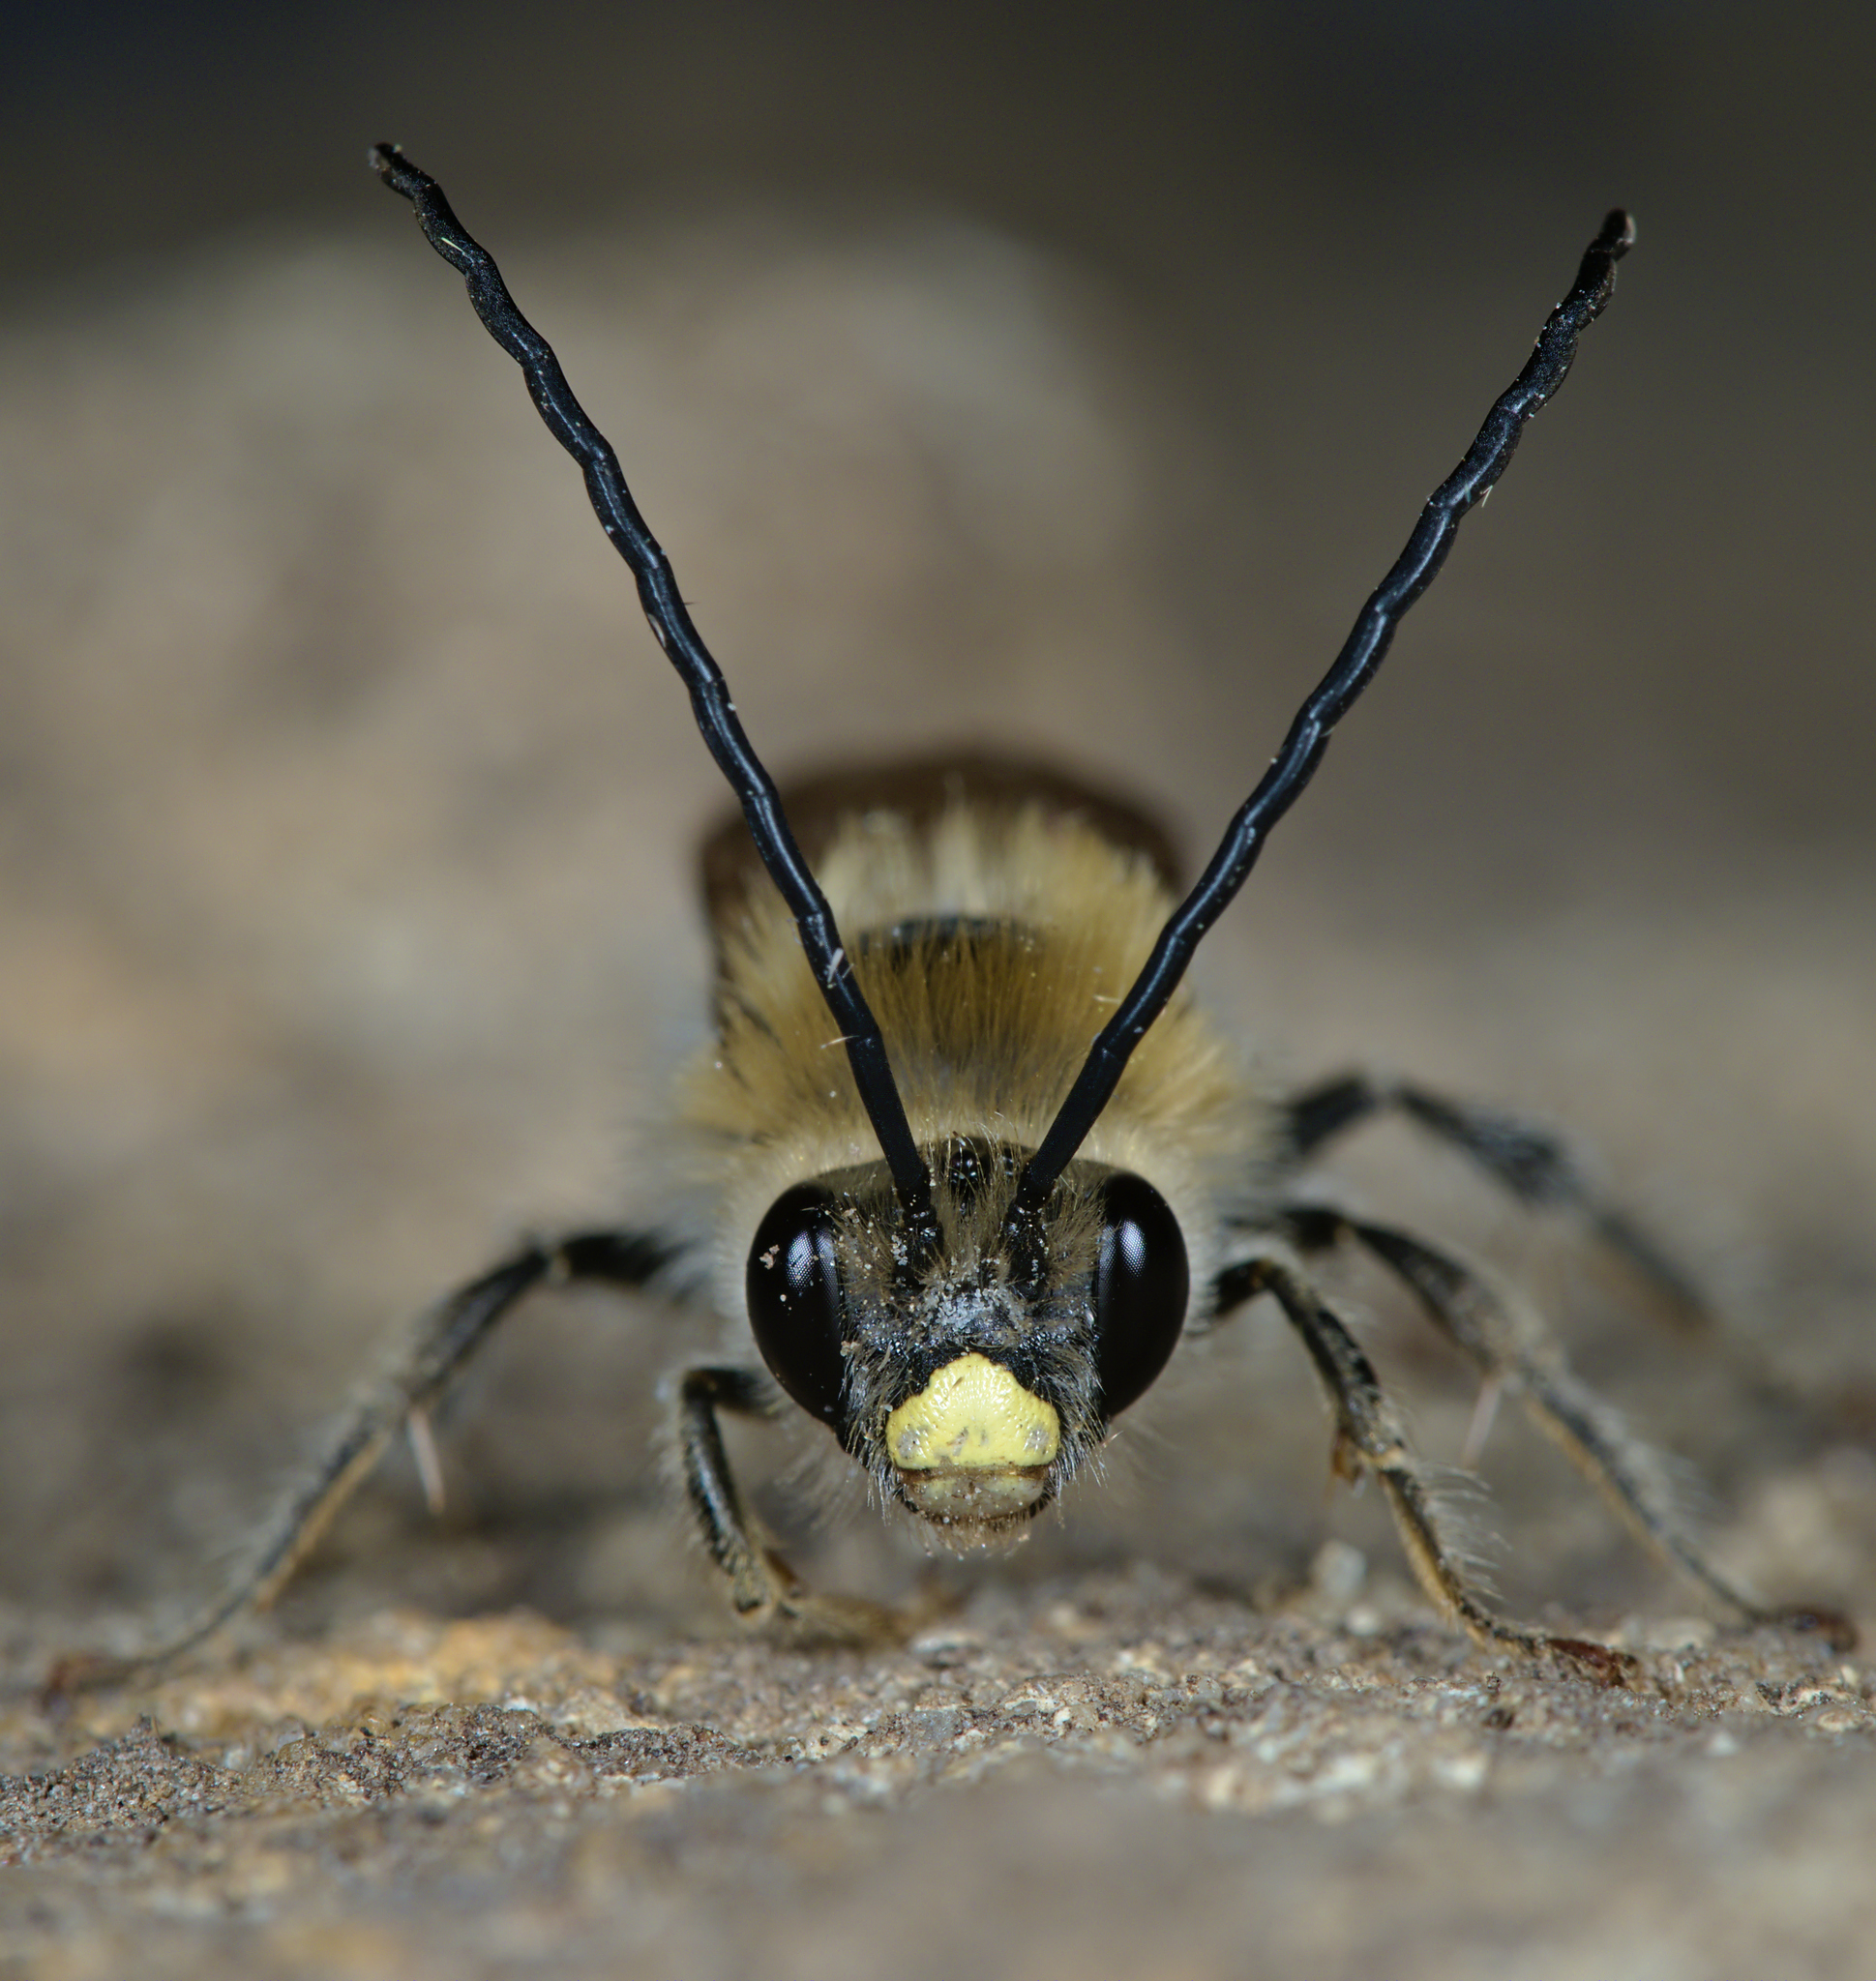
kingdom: Animalia
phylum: Arthropoda
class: Insecta
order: Hymenoptera
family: Apidae
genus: Eucera
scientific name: Eucera nigrescens
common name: Tuberculate long-horned bee
